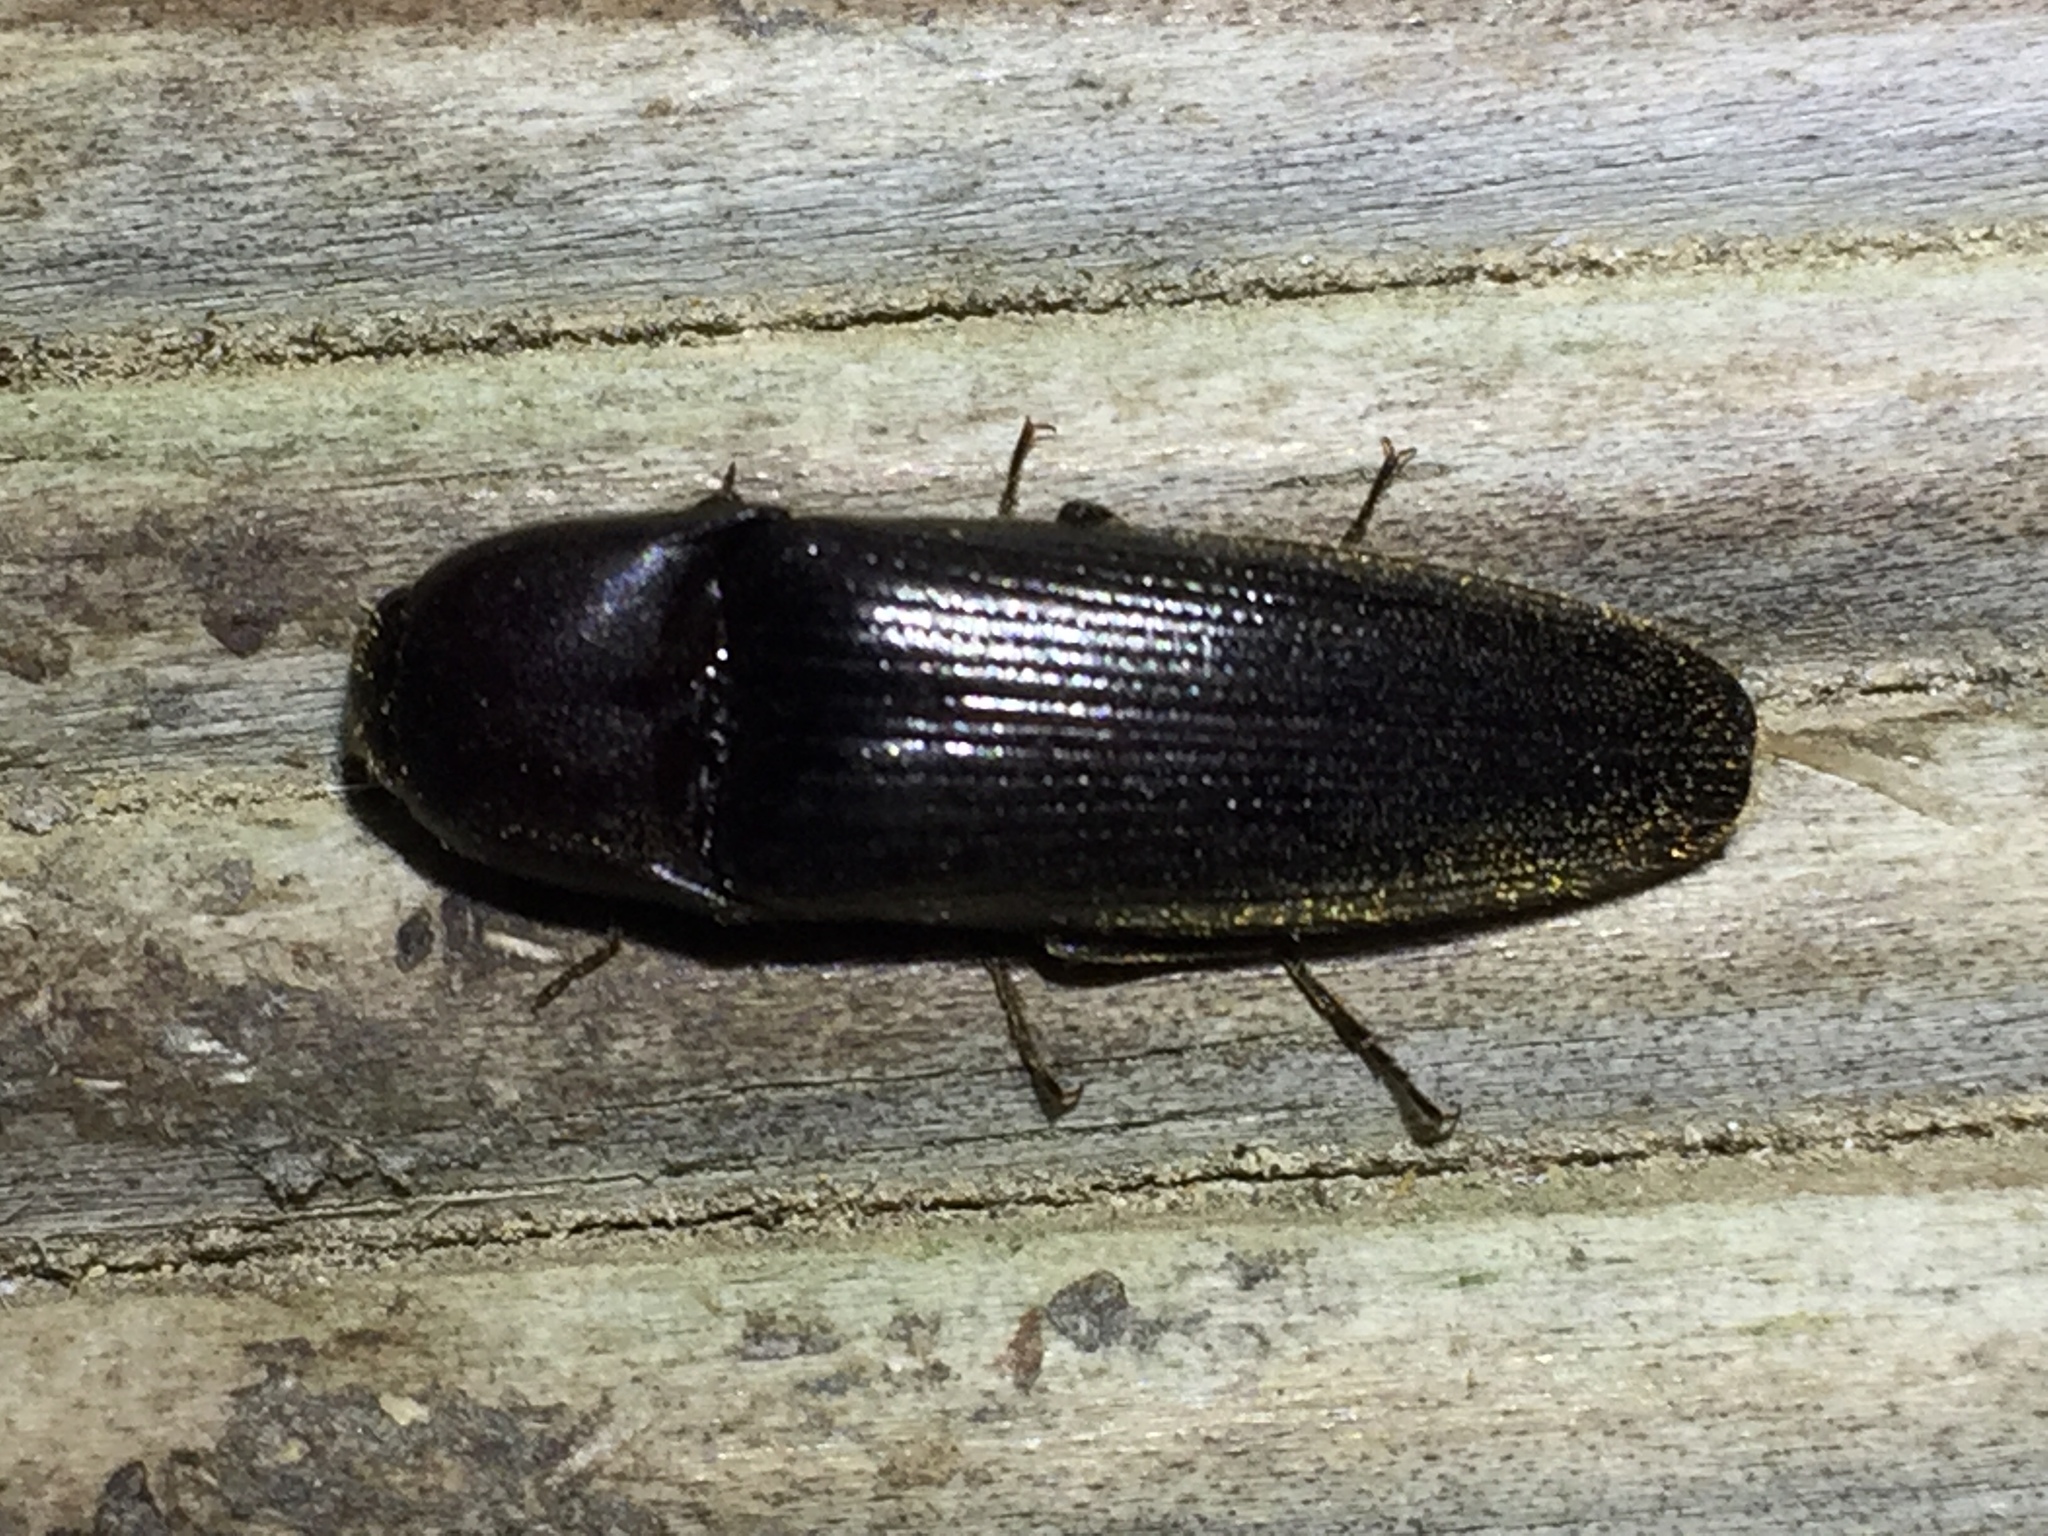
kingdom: Animalia
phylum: Arthropoda
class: Insecta
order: Coleoptera
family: Elateridae
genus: Ochosternus
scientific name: Ochosternus zealandicus
